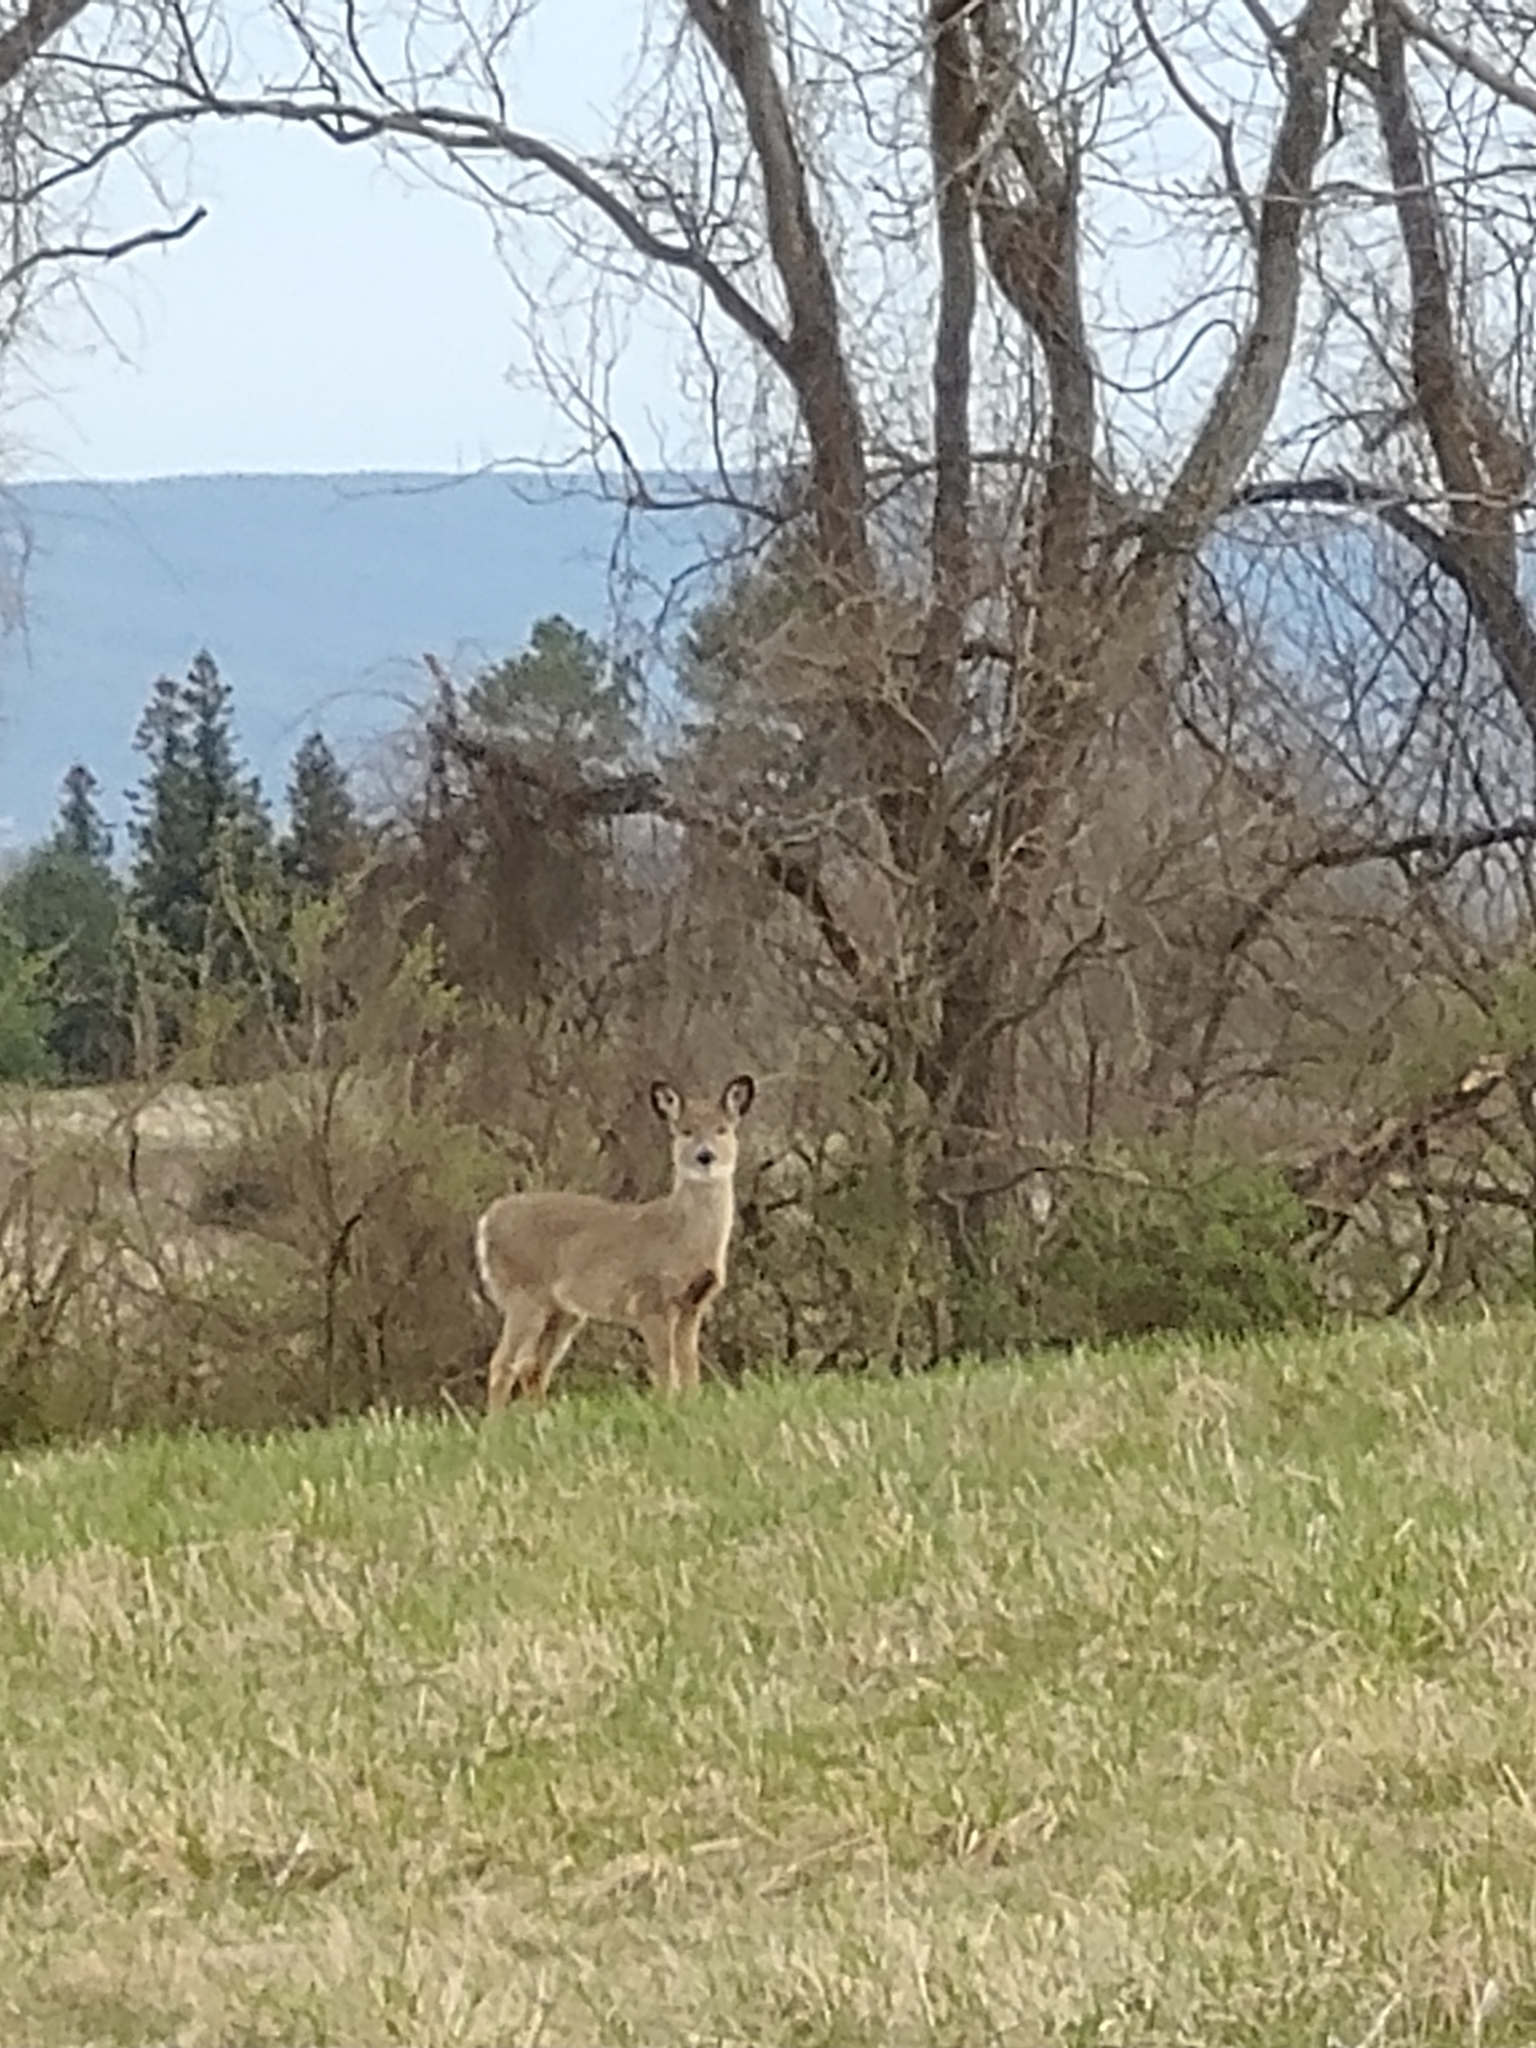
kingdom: Animalia
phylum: Chordata
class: Mammalia
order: Artiodactyla
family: Cervidae
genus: Odocoileus
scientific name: Odocoileus virginianus
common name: White-tailed deer
